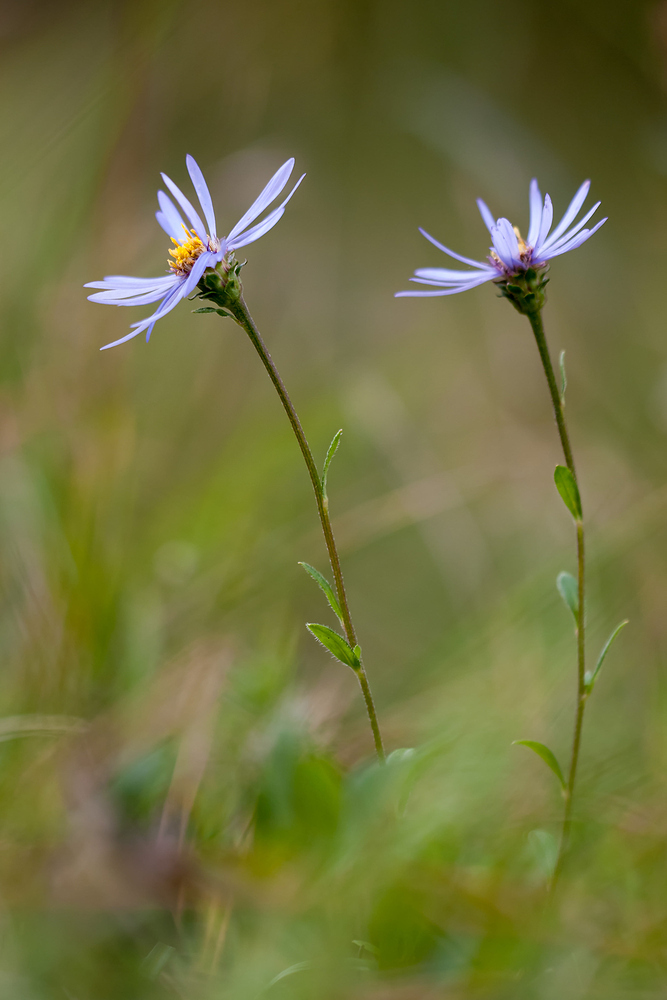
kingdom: Plantae
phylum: Tracheophyta
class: Magnoliopsida
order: Asterales
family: Asteraceae
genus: Aster
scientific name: Aster amellus
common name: European michaelmas daisy
